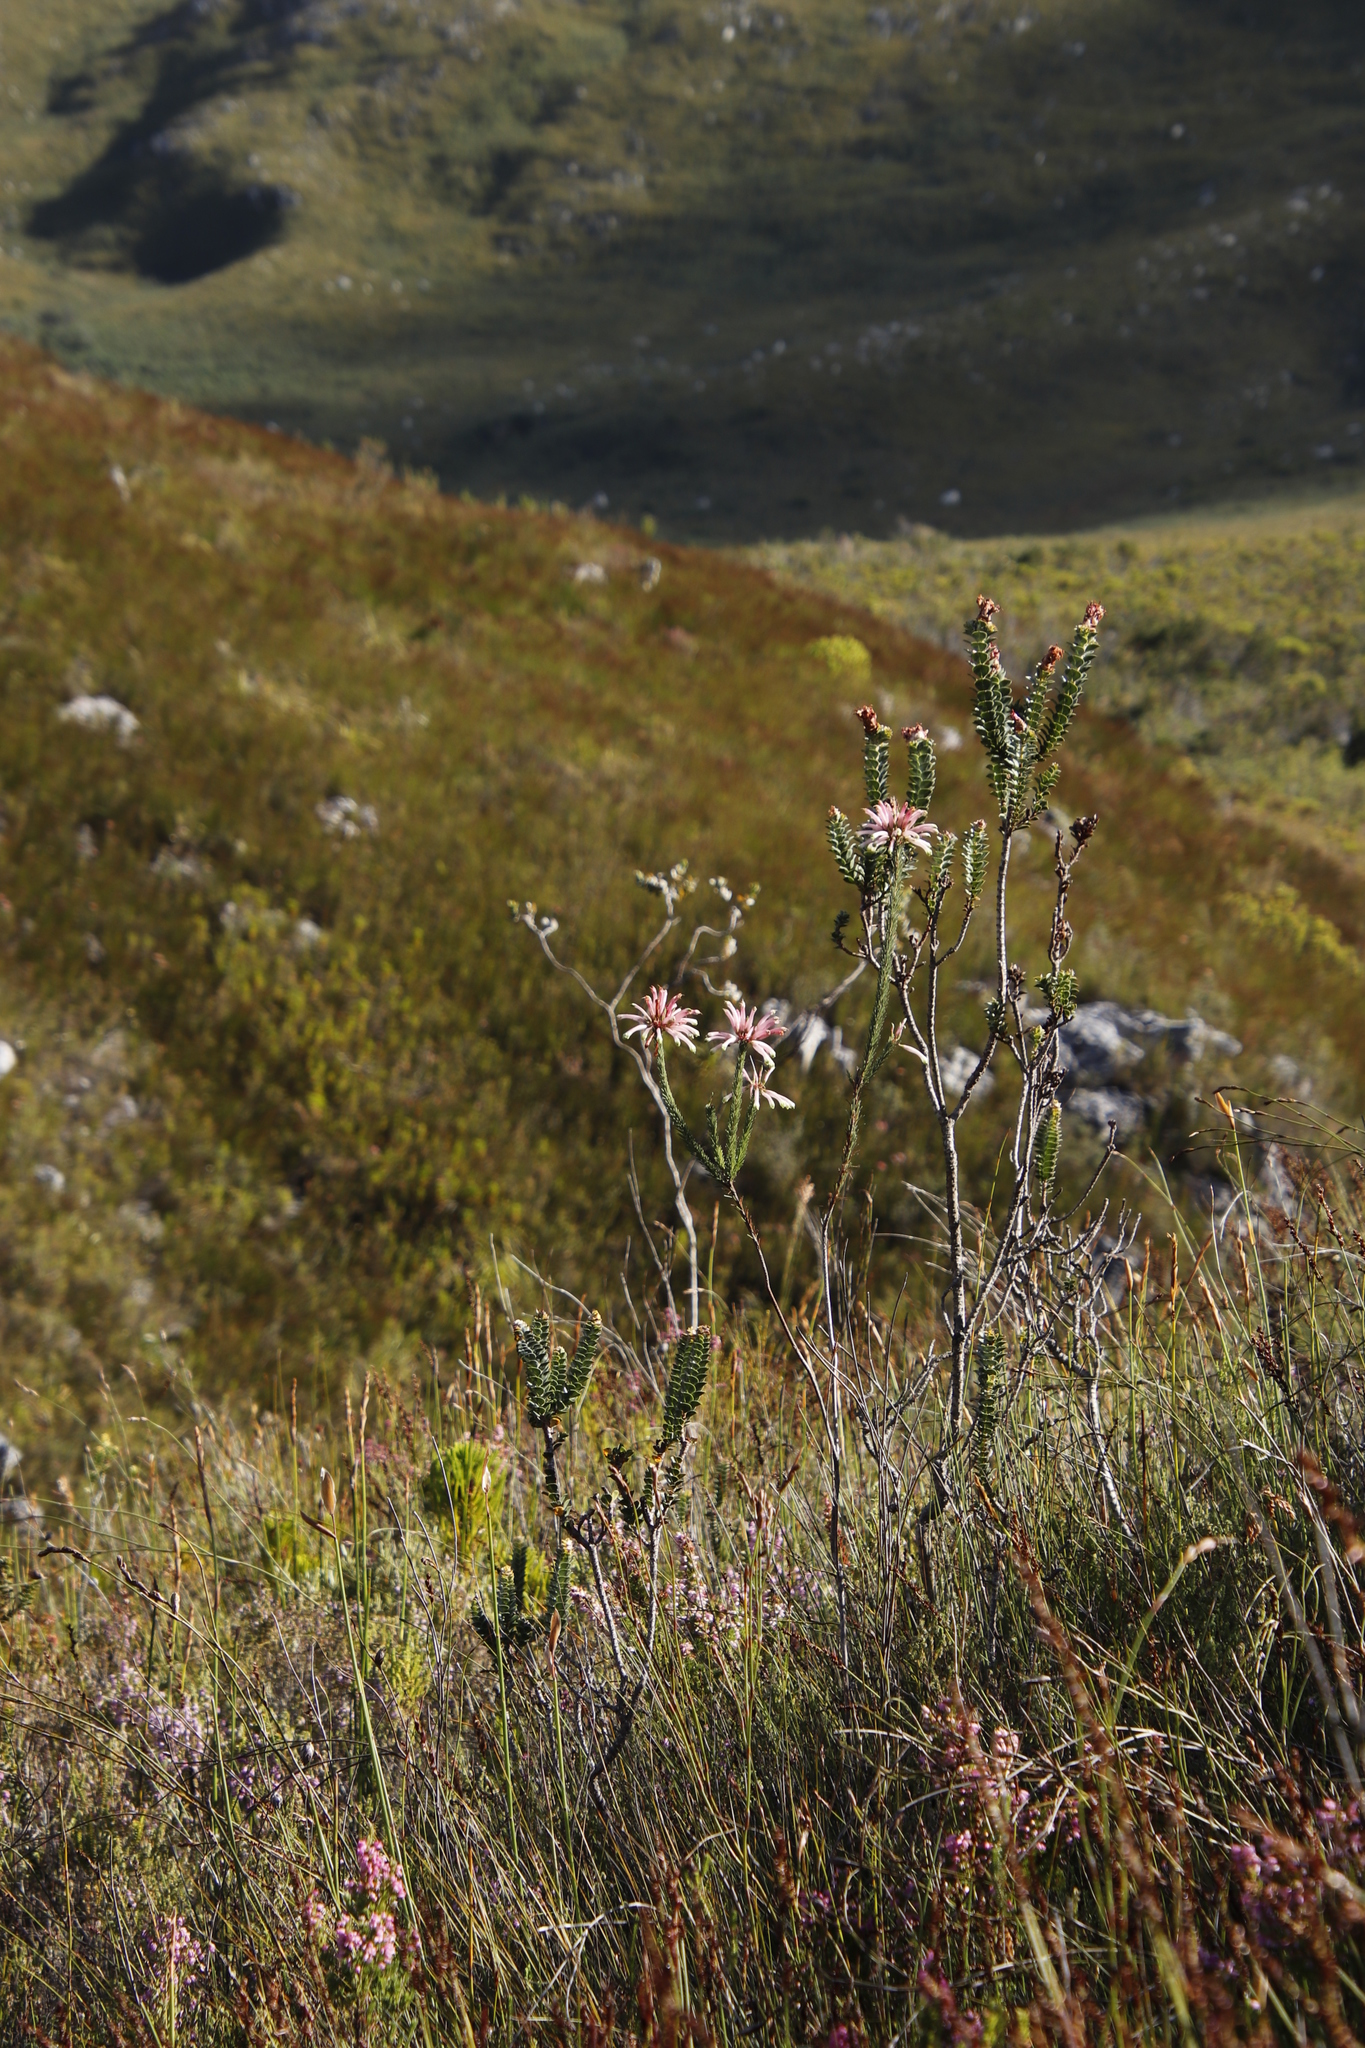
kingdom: Plantae
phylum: Tracheophyta
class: Magnoliopsida
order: Ericales
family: Ericaceae
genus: Erica
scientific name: Erica fascicularis
